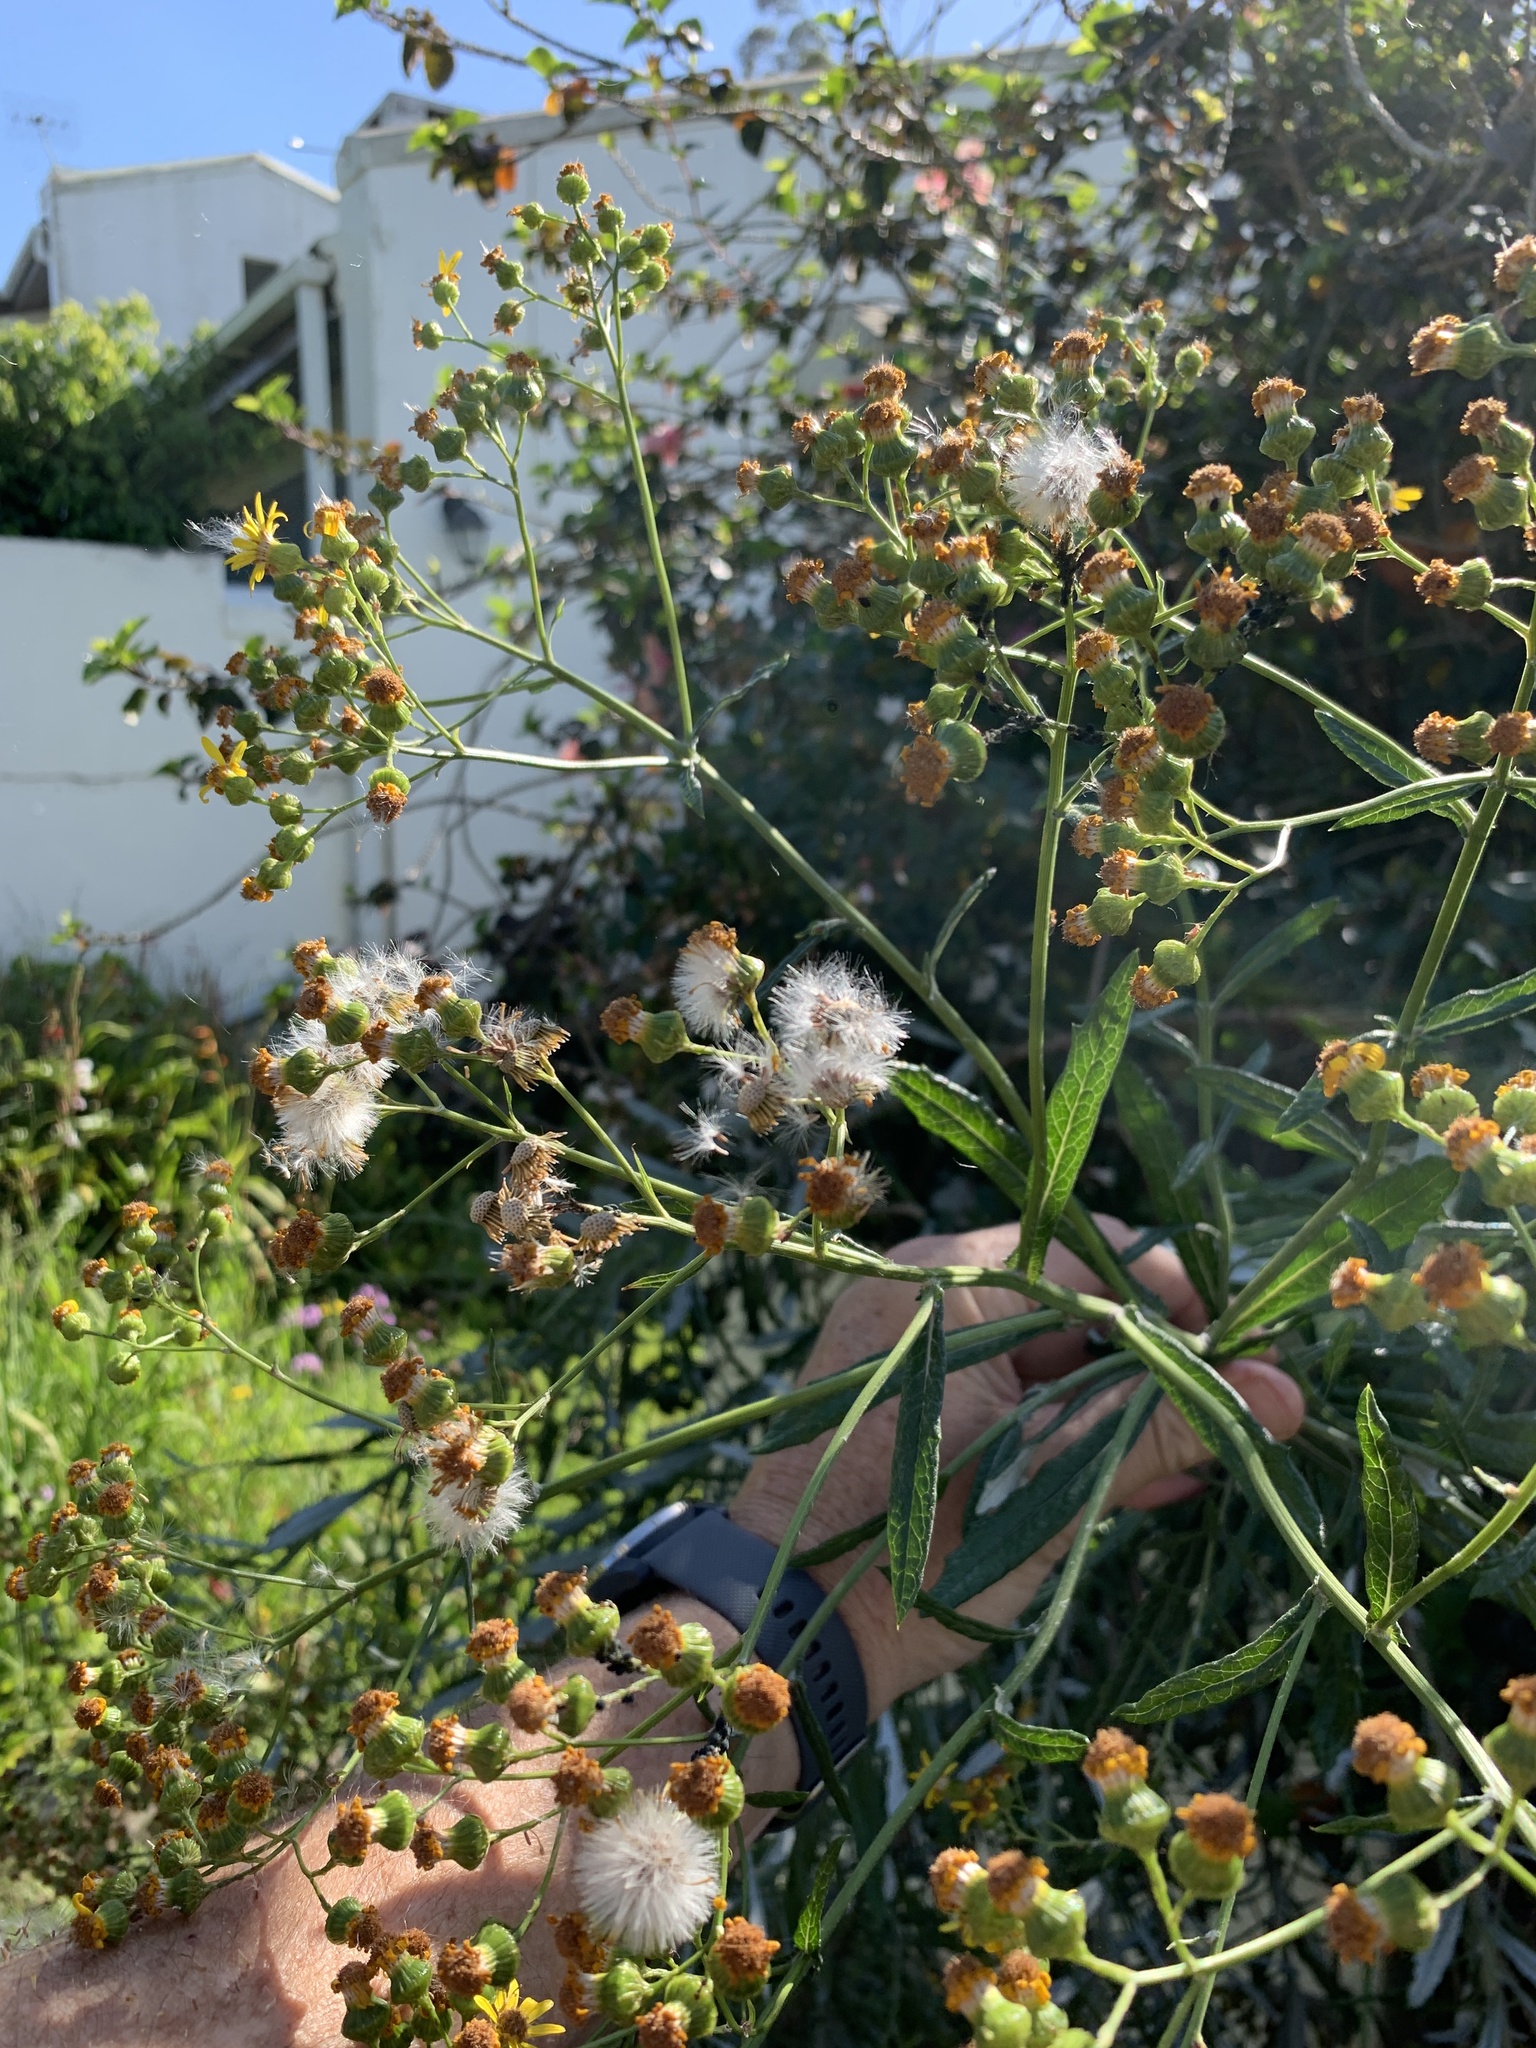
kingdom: Plantae
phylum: Tracheophyta
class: Magnoliopsida
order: Asterales
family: Asteraceae
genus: Senecio
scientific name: Senecio pterophorus
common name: Shoddy ragwort
